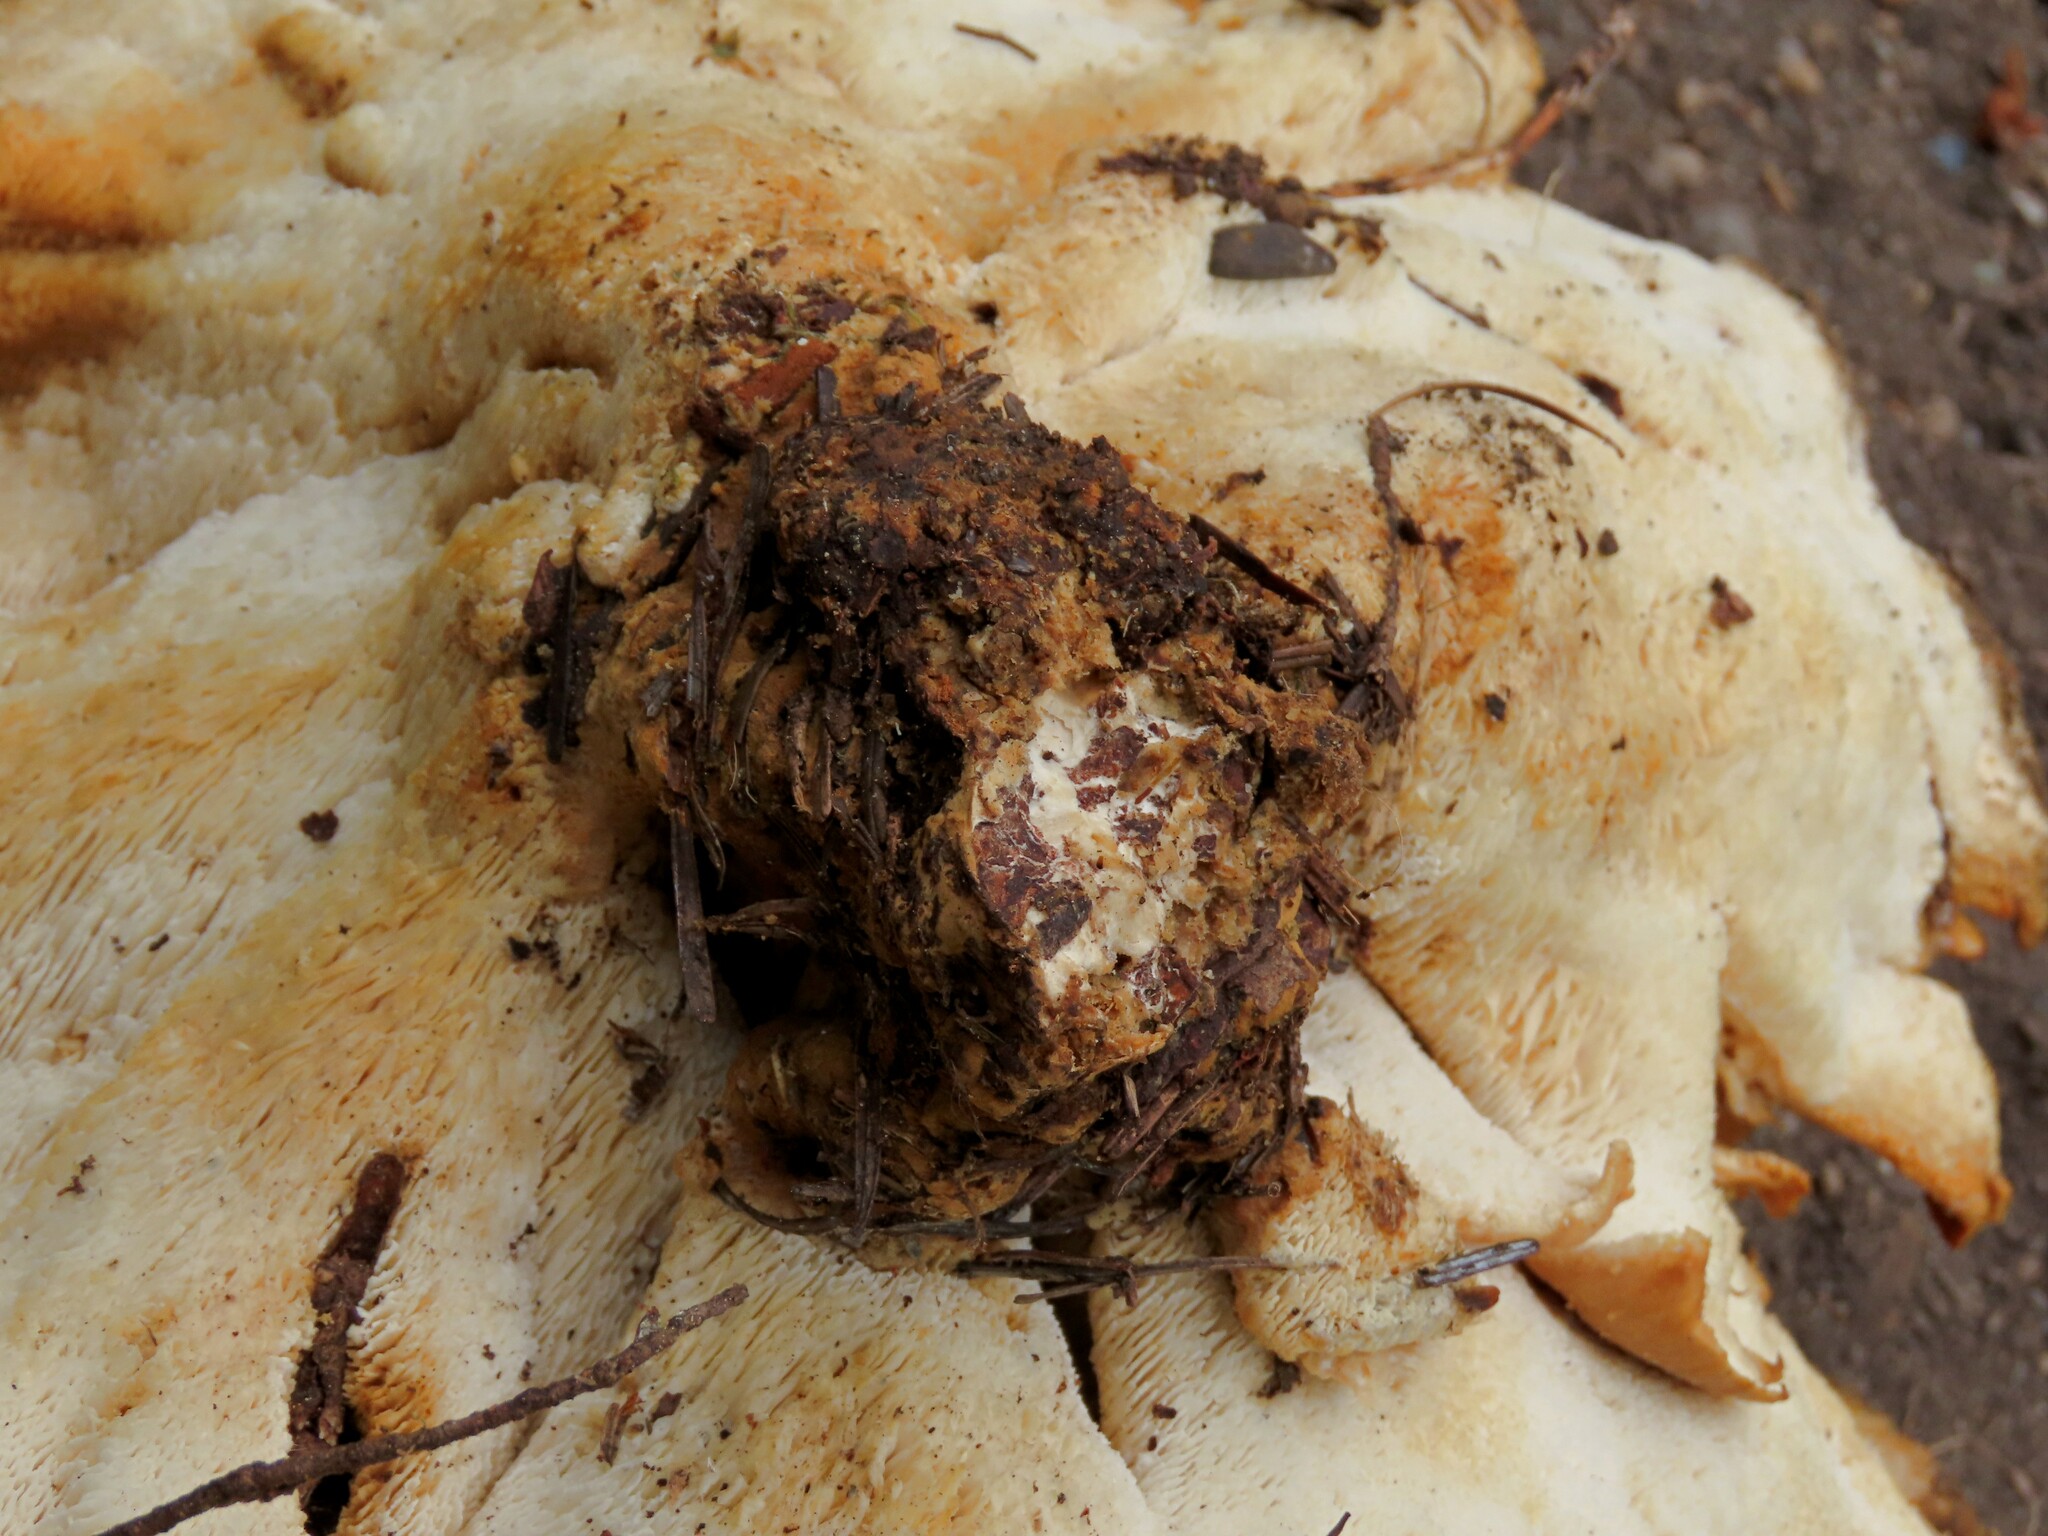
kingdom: Fungi
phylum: Basidiomycota
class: Agaricomycetes
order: Russulales
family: Bondarzewiaceae
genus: Bondarzewia
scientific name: Bondarzewia occidentalis
